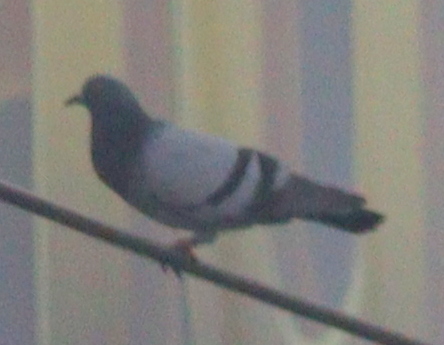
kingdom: Animalia
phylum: Chordata
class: Aves
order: Columbiformes
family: Columbidae
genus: Columba
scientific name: Columba livia
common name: Rock pigeon
